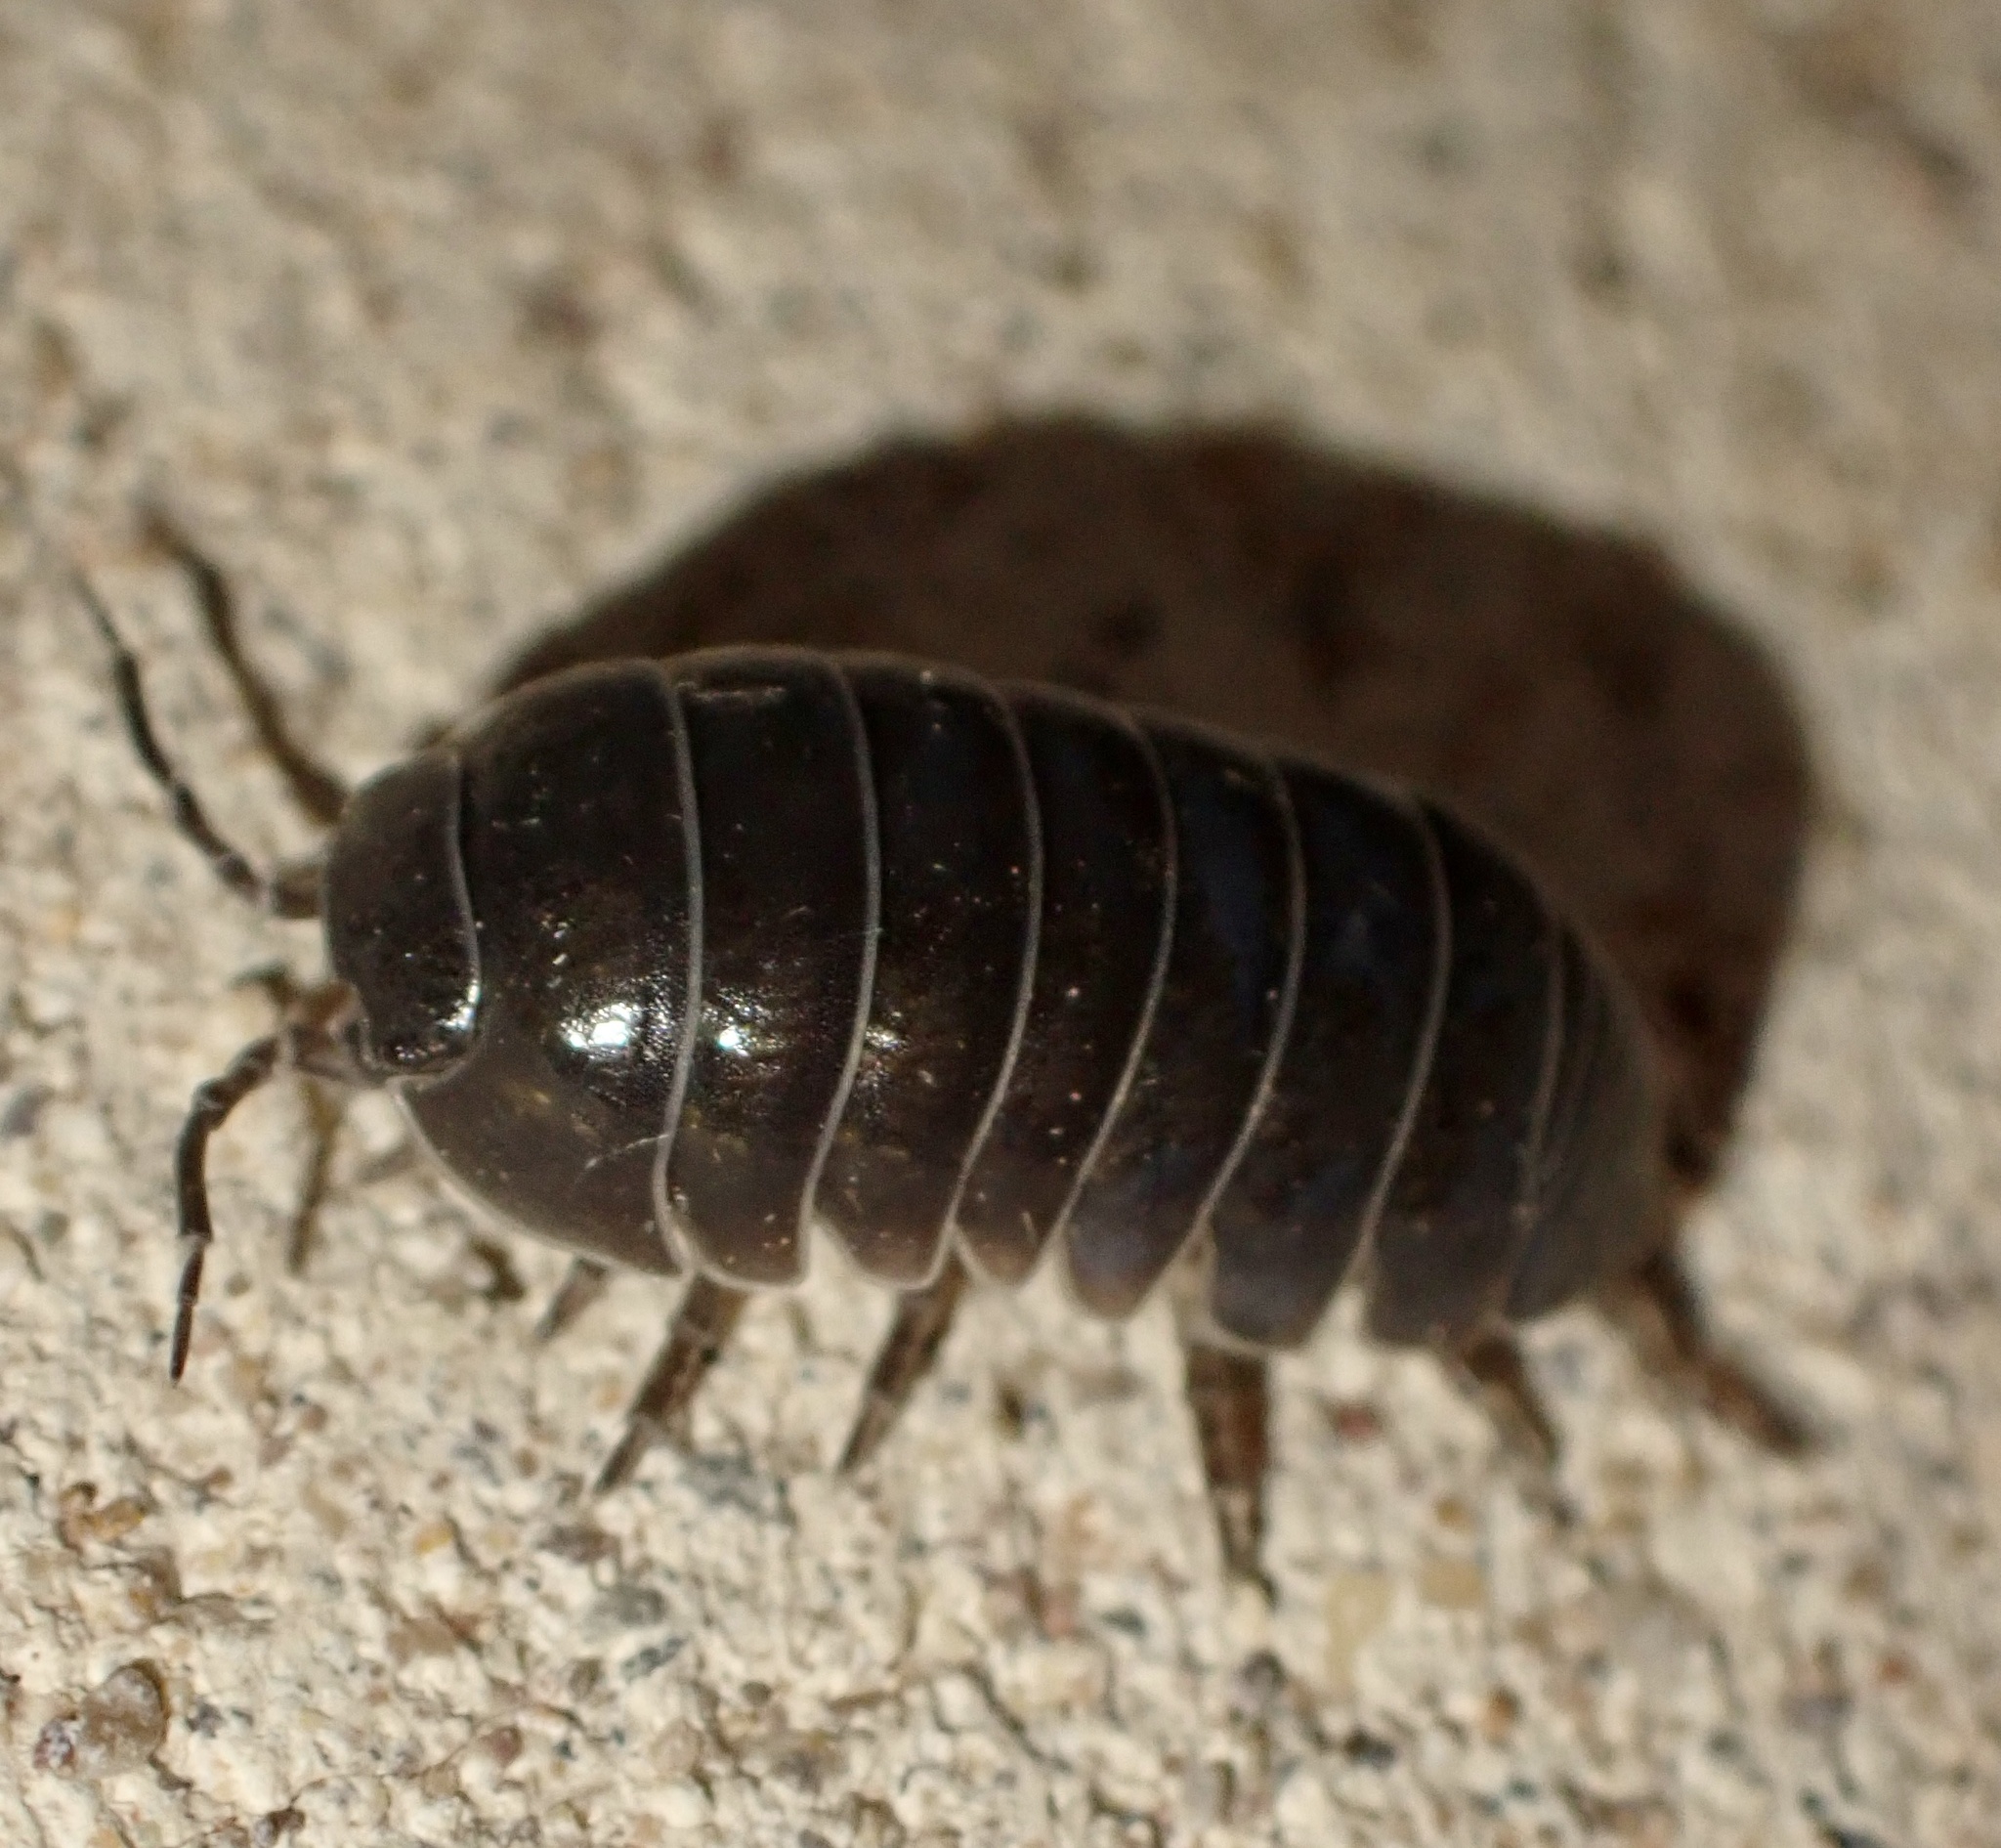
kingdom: Animalia
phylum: Arthropoda
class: Malacostraca
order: Isopoda
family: Armadillidiidae
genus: Armadillidium
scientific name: Armadillidium vulgare
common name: Common pill woodlouse
